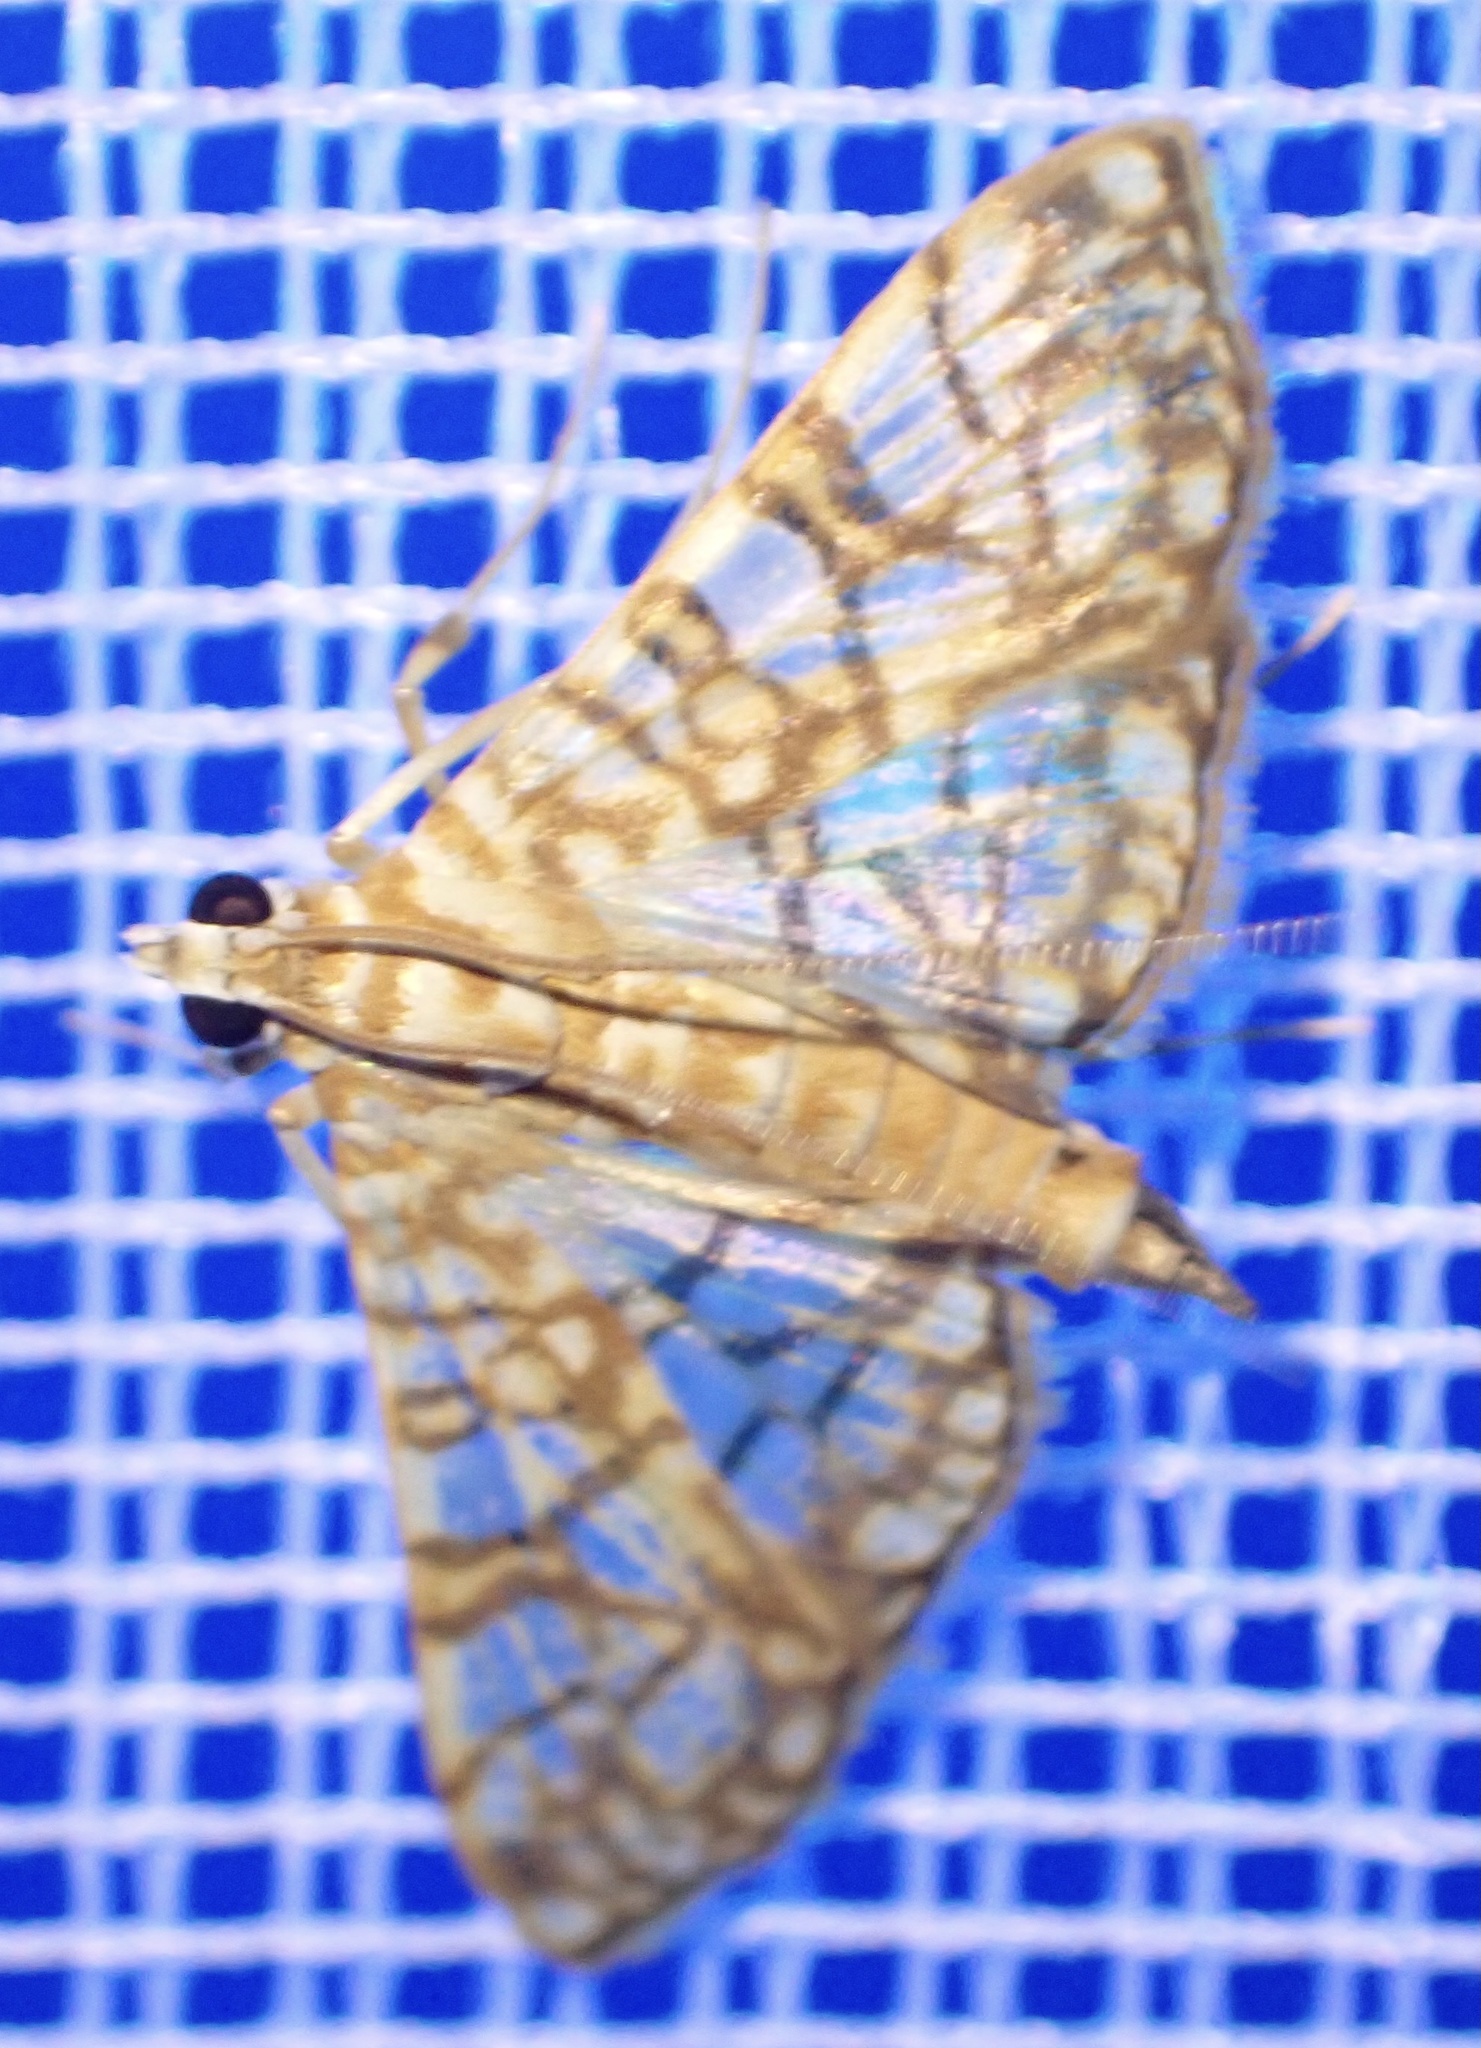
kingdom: Animalia
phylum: Arthropoda
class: Insecta
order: Lepidoptera
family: Crambidae
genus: Synclera
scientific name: Synclera traducalis
